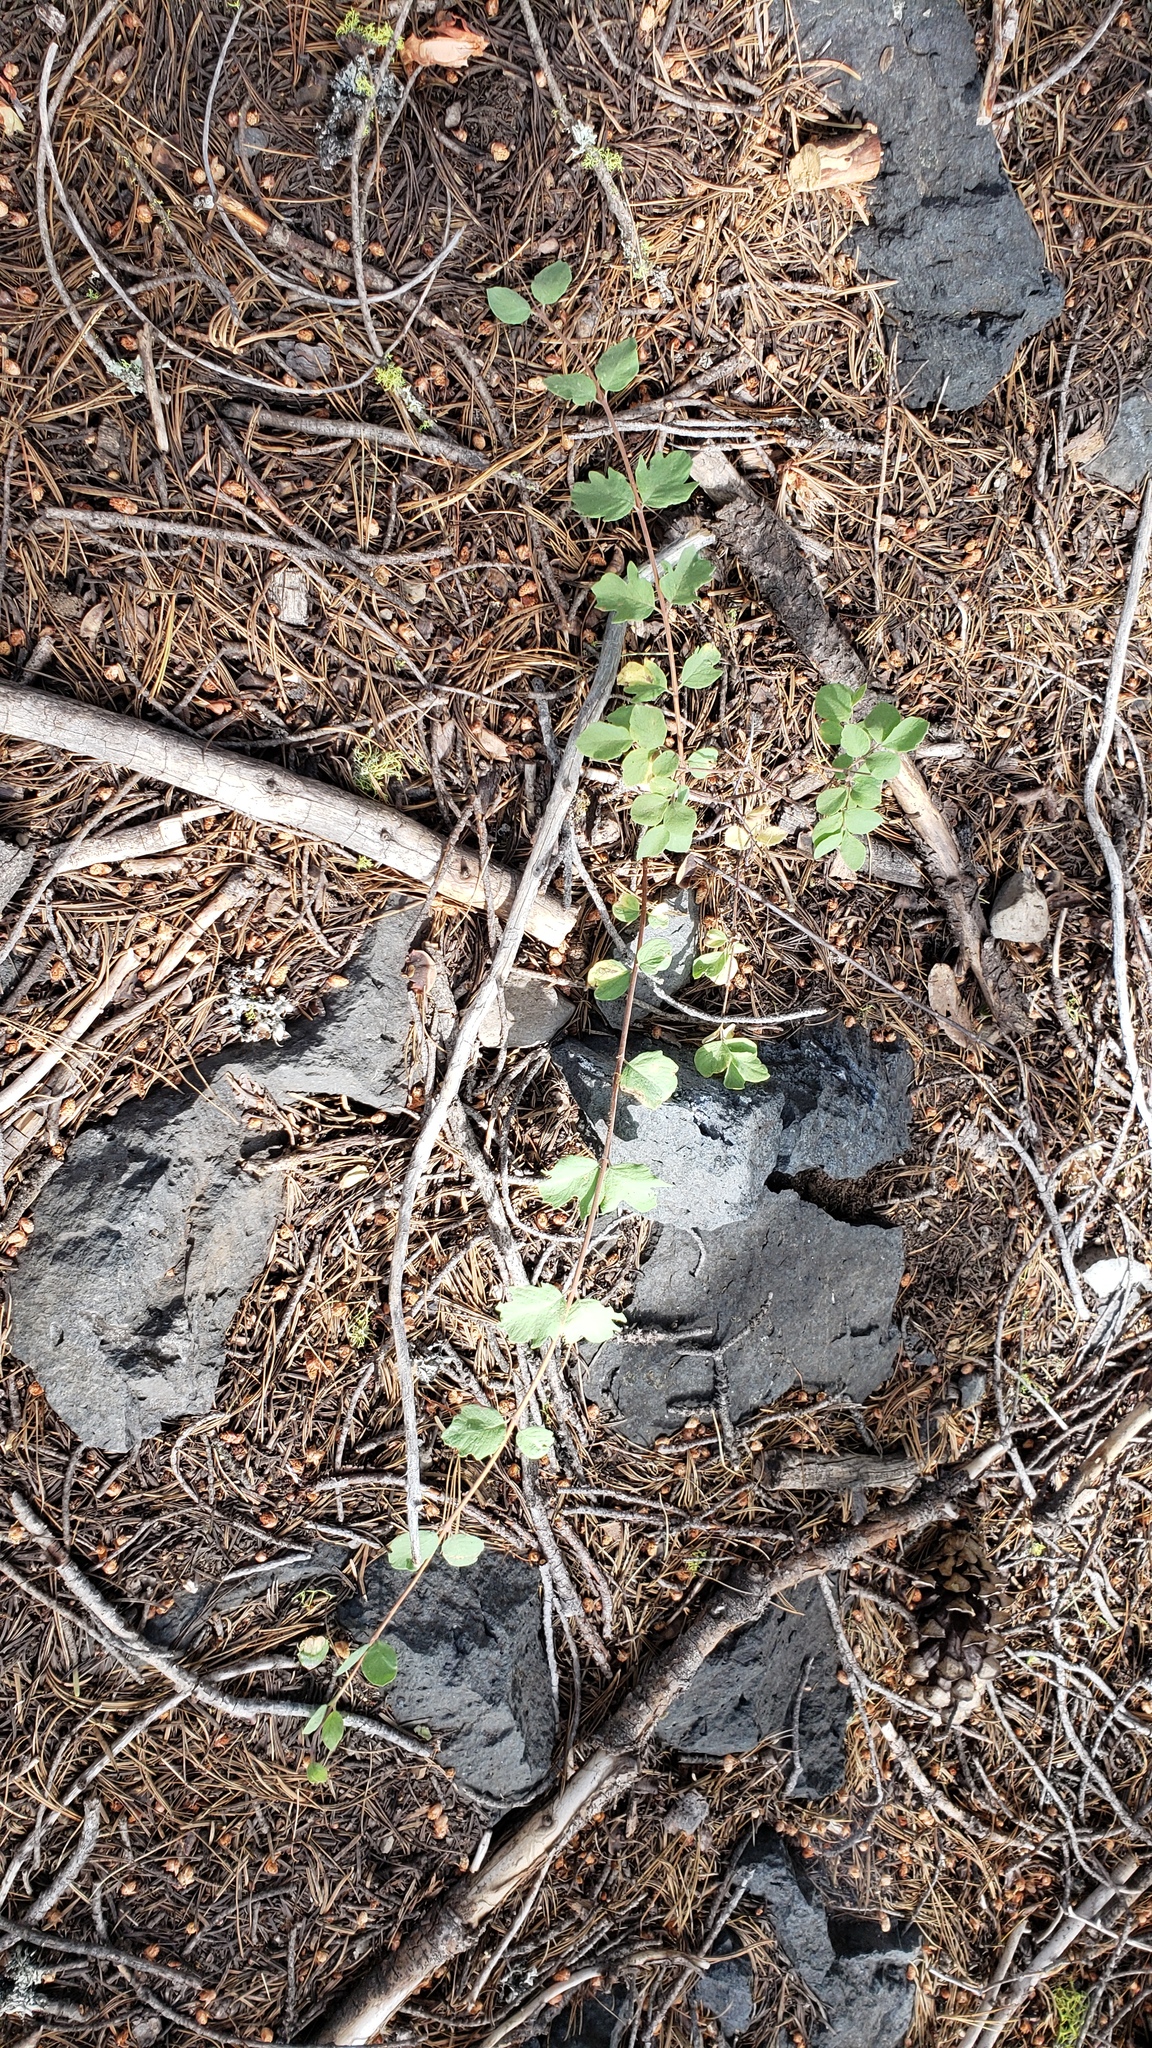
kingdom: Plantae
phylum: Tracheophyta
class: Magnoliopsida
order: Dipsacales
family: Caprifoliaceae
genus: Symphoricarpos
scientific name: Symphoricarpos mollis
